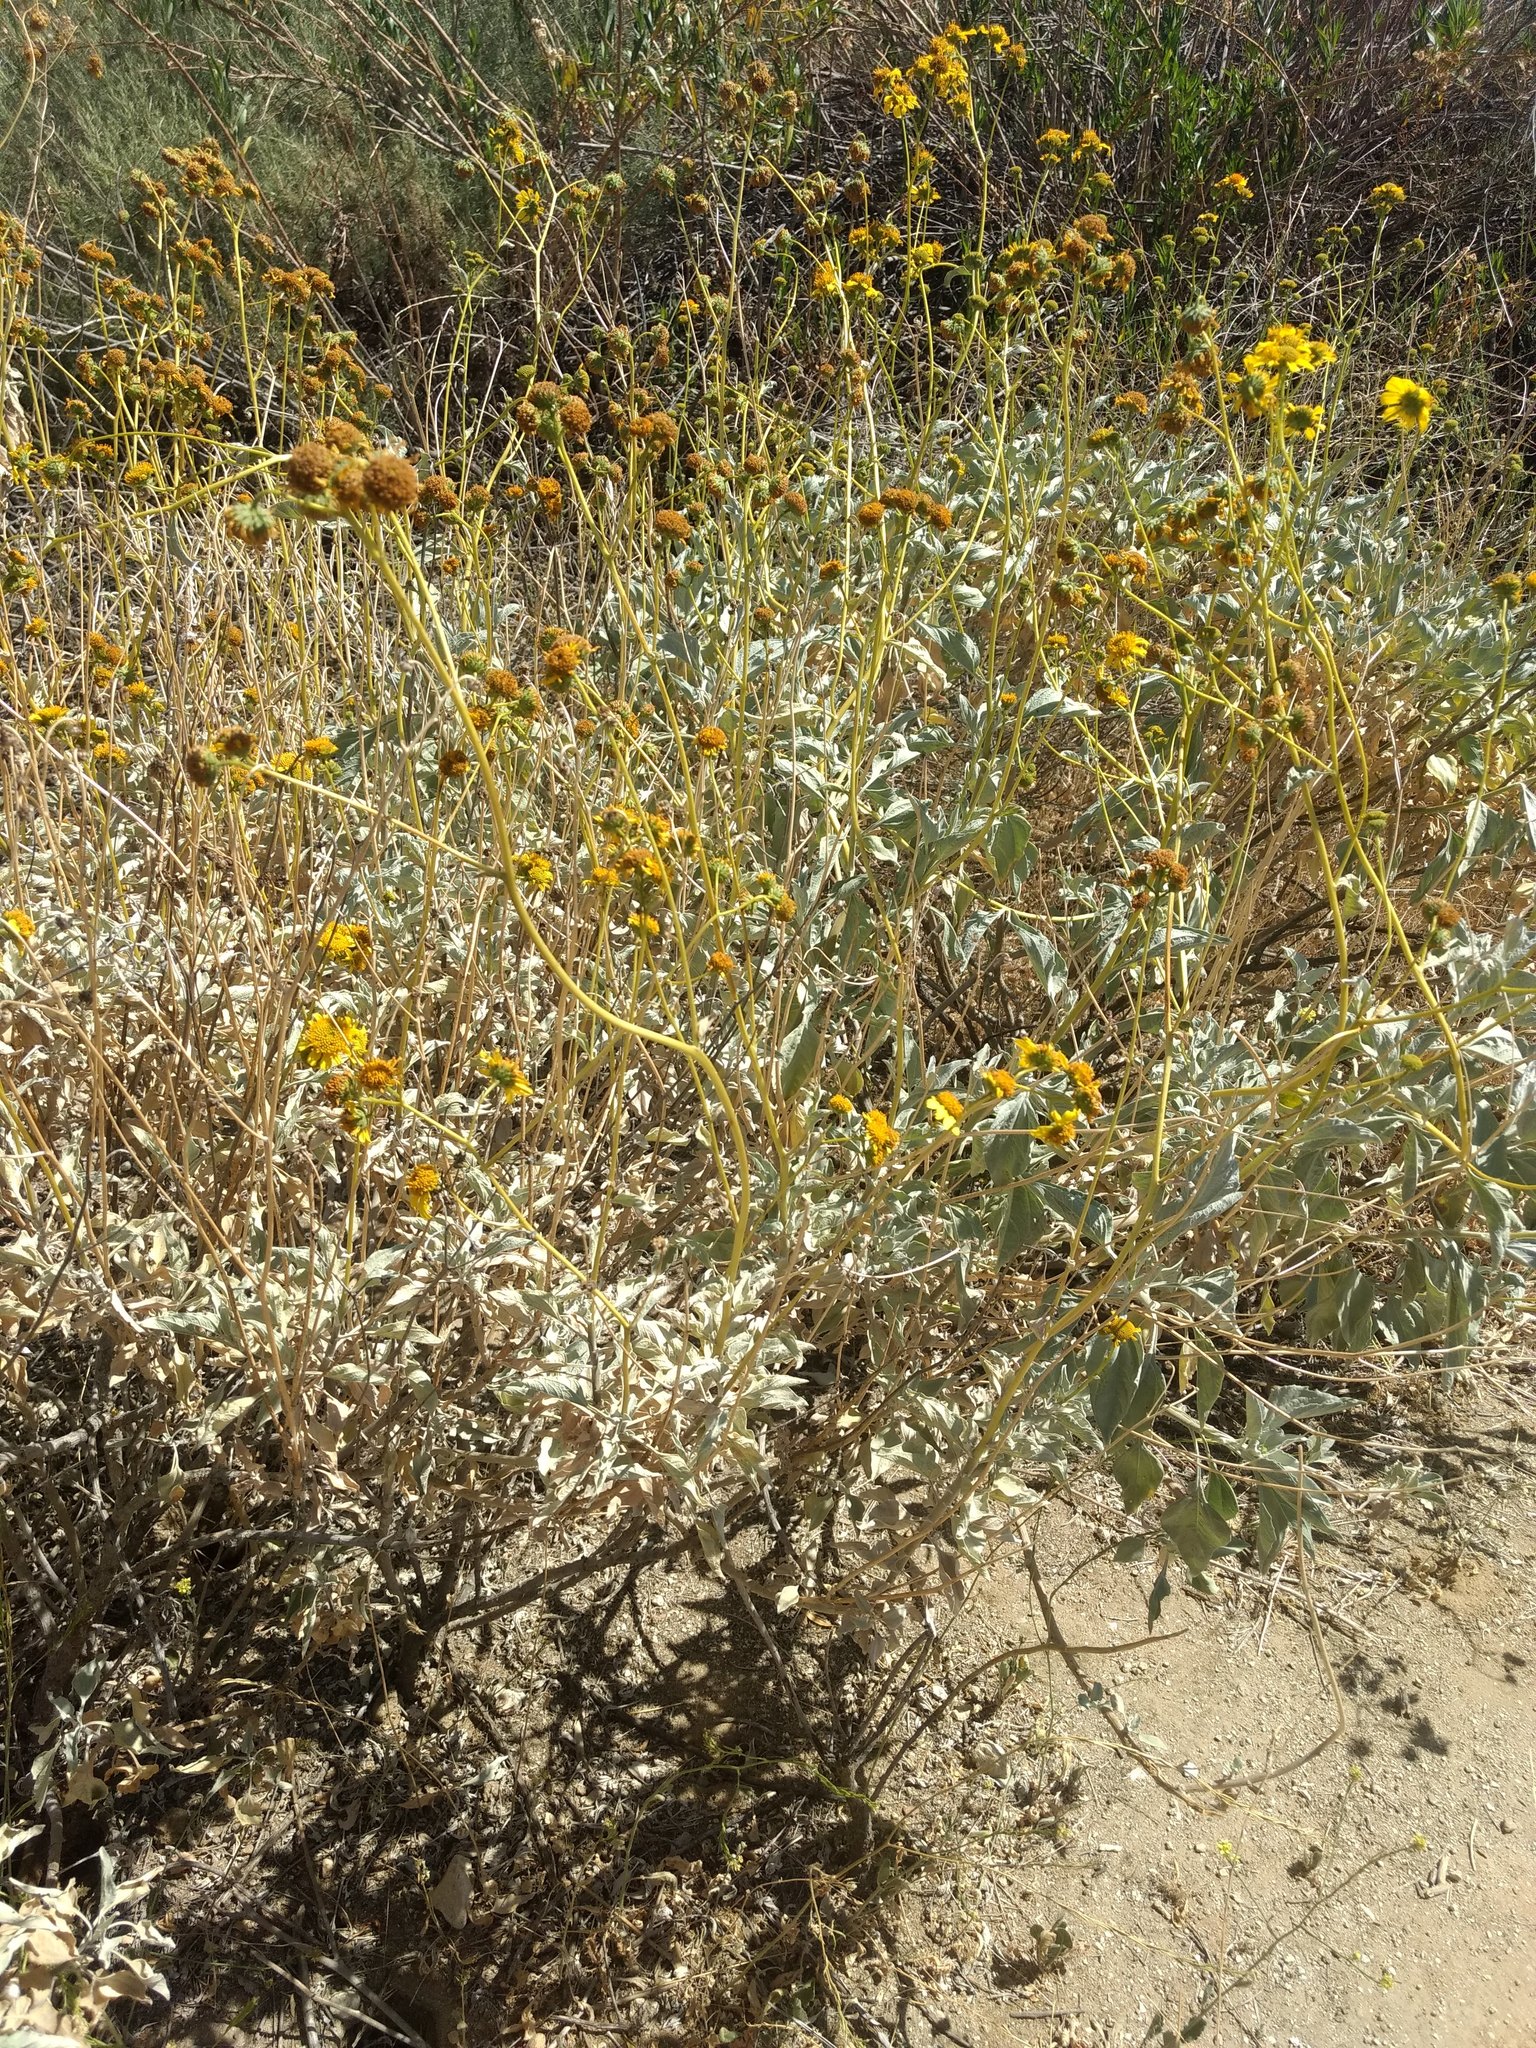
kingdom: Plantae
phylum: Tracheophyta
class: Magnoliopsida
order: Asterales
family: Asteraceae
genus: Encelia
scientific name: Encelia farinosa
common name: Brittlebush
